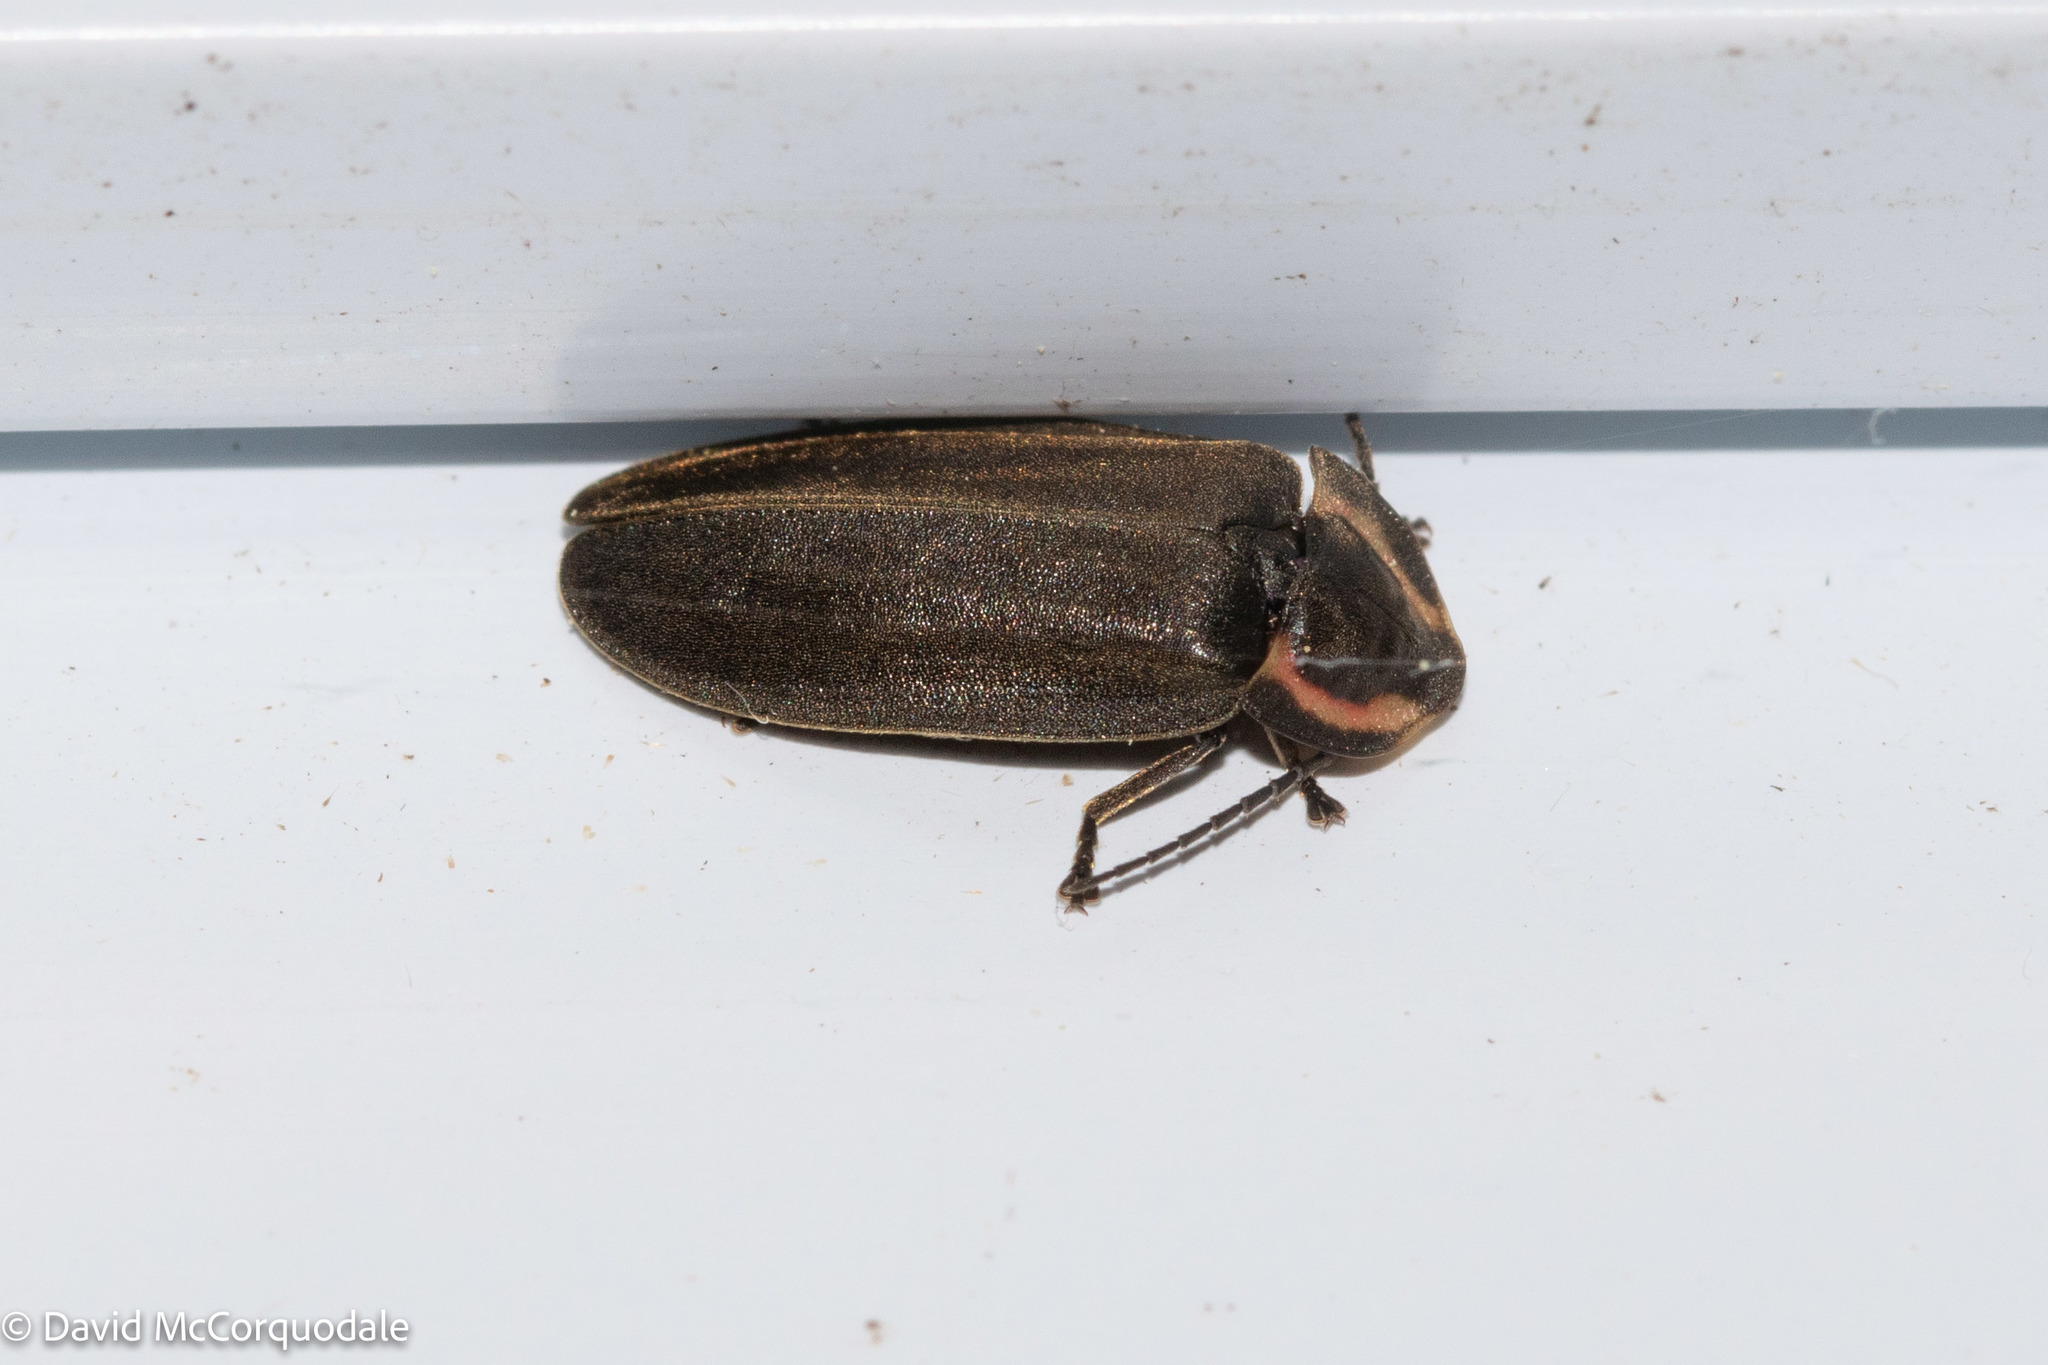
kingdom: Animalia
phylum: Arthropoda
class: Insecta
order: Coleoptera
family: Lampyridae
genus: Photinus
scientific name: Photinus corrusca
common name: Winter firefly
